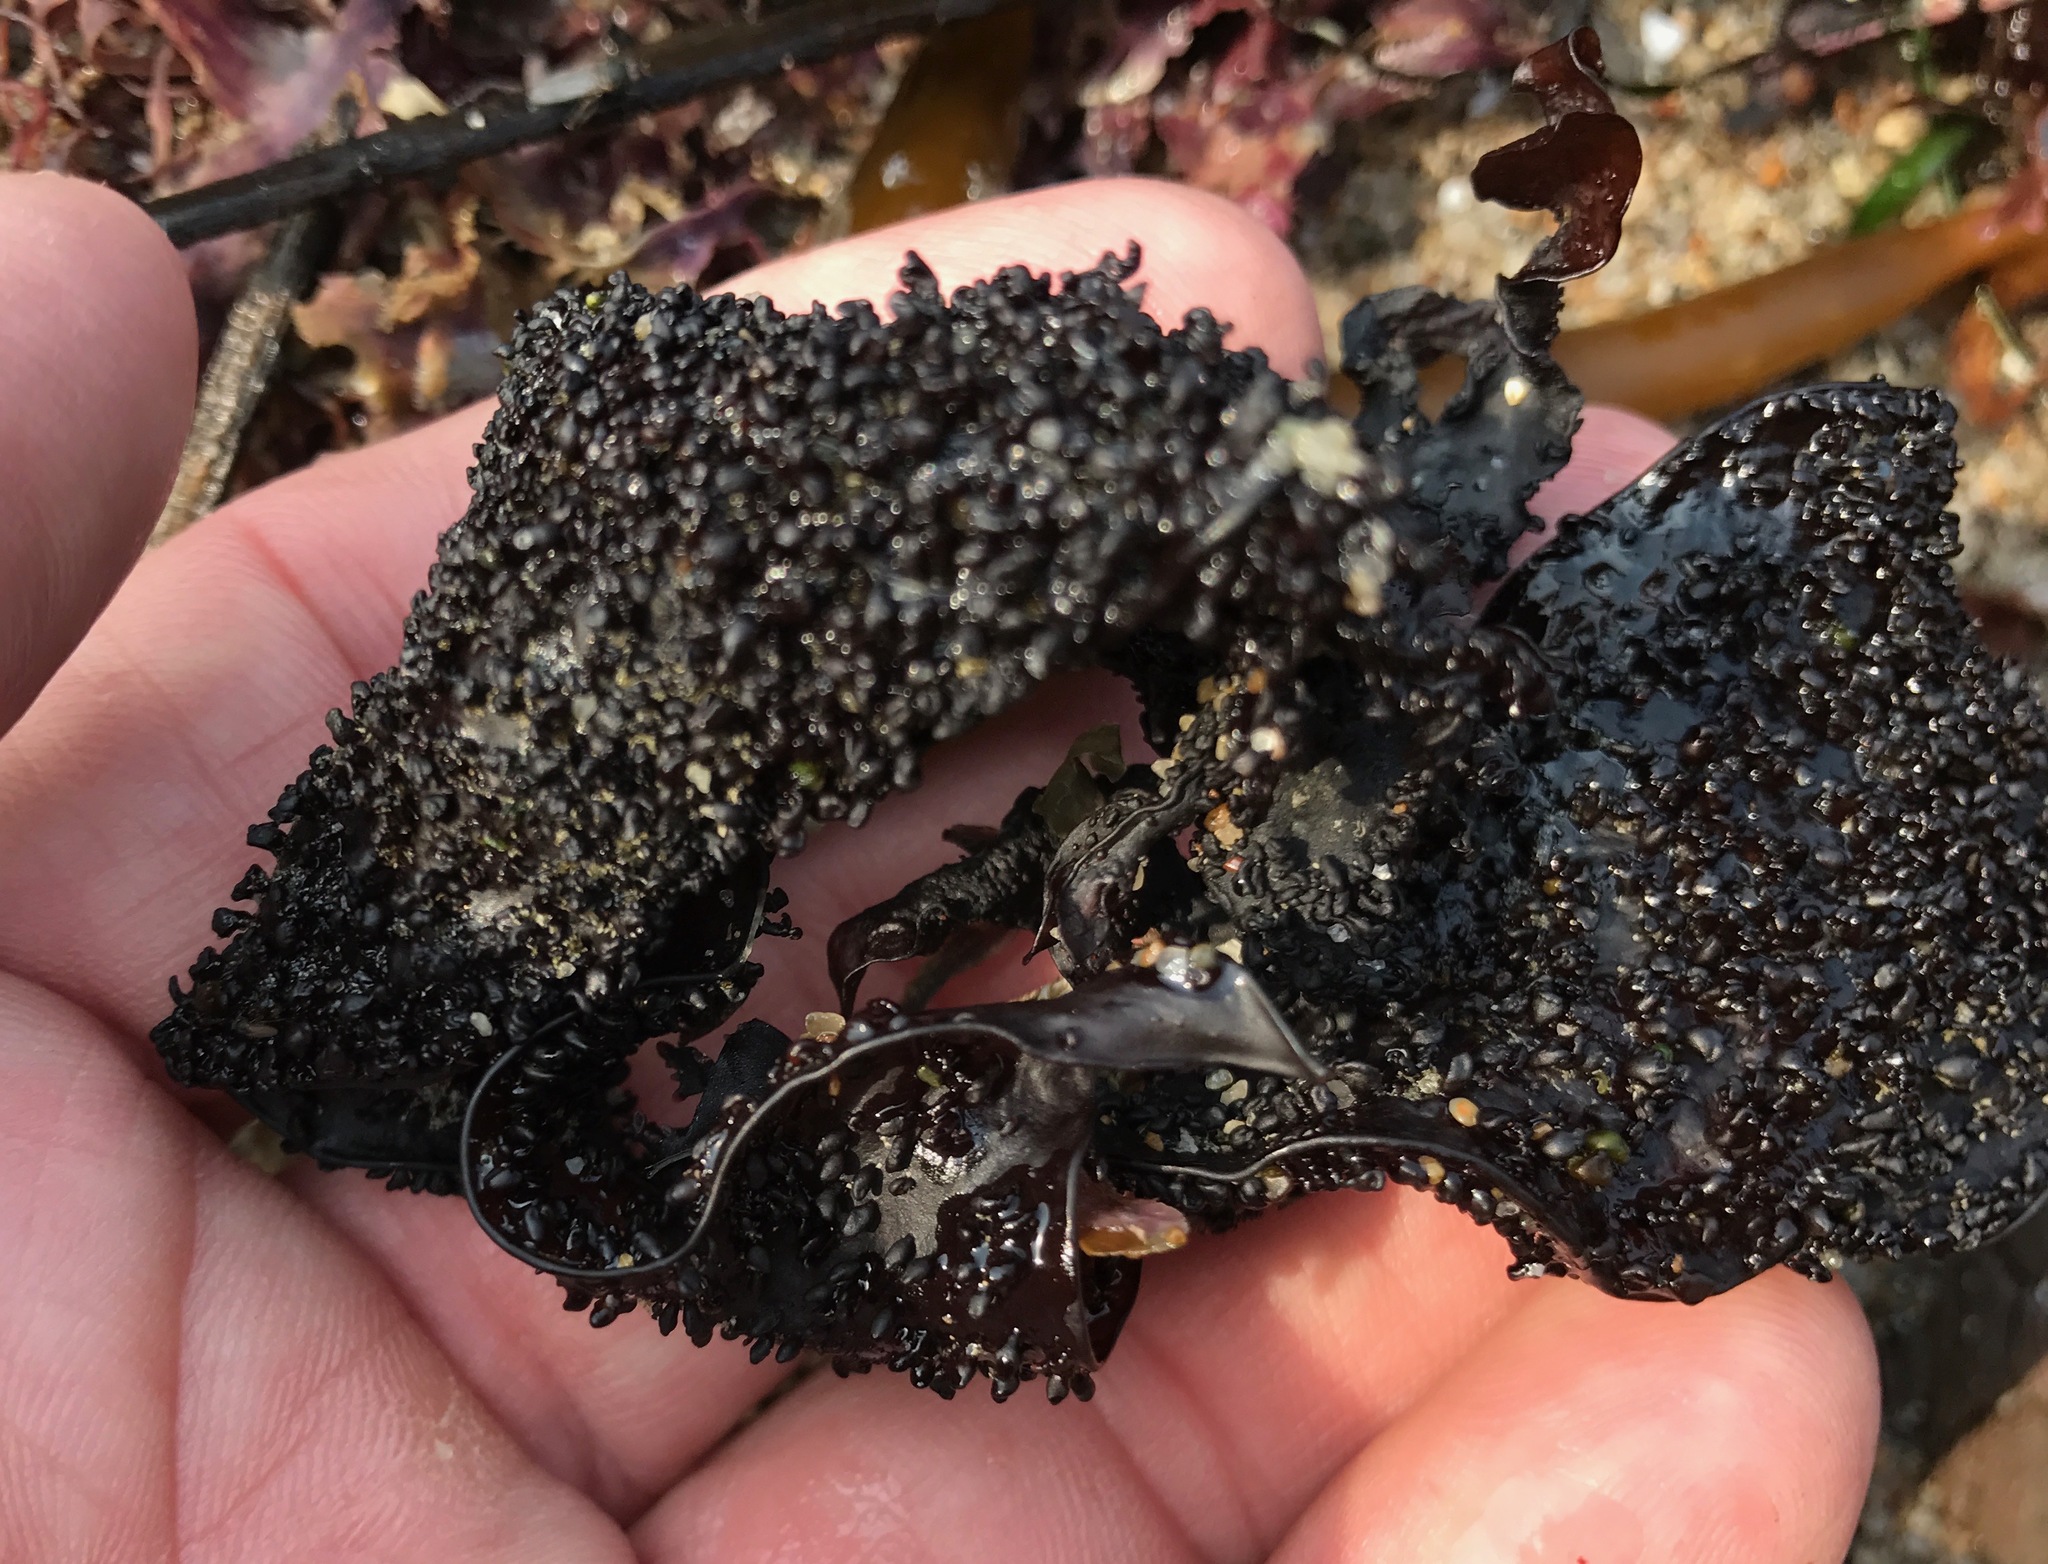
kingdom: Plantae
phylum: Rhodophyta
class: Florideophyceae
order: Gigartinales
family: Phyllophoraceae
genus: Mastocarpus
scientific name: Mastocarpus papillatus
